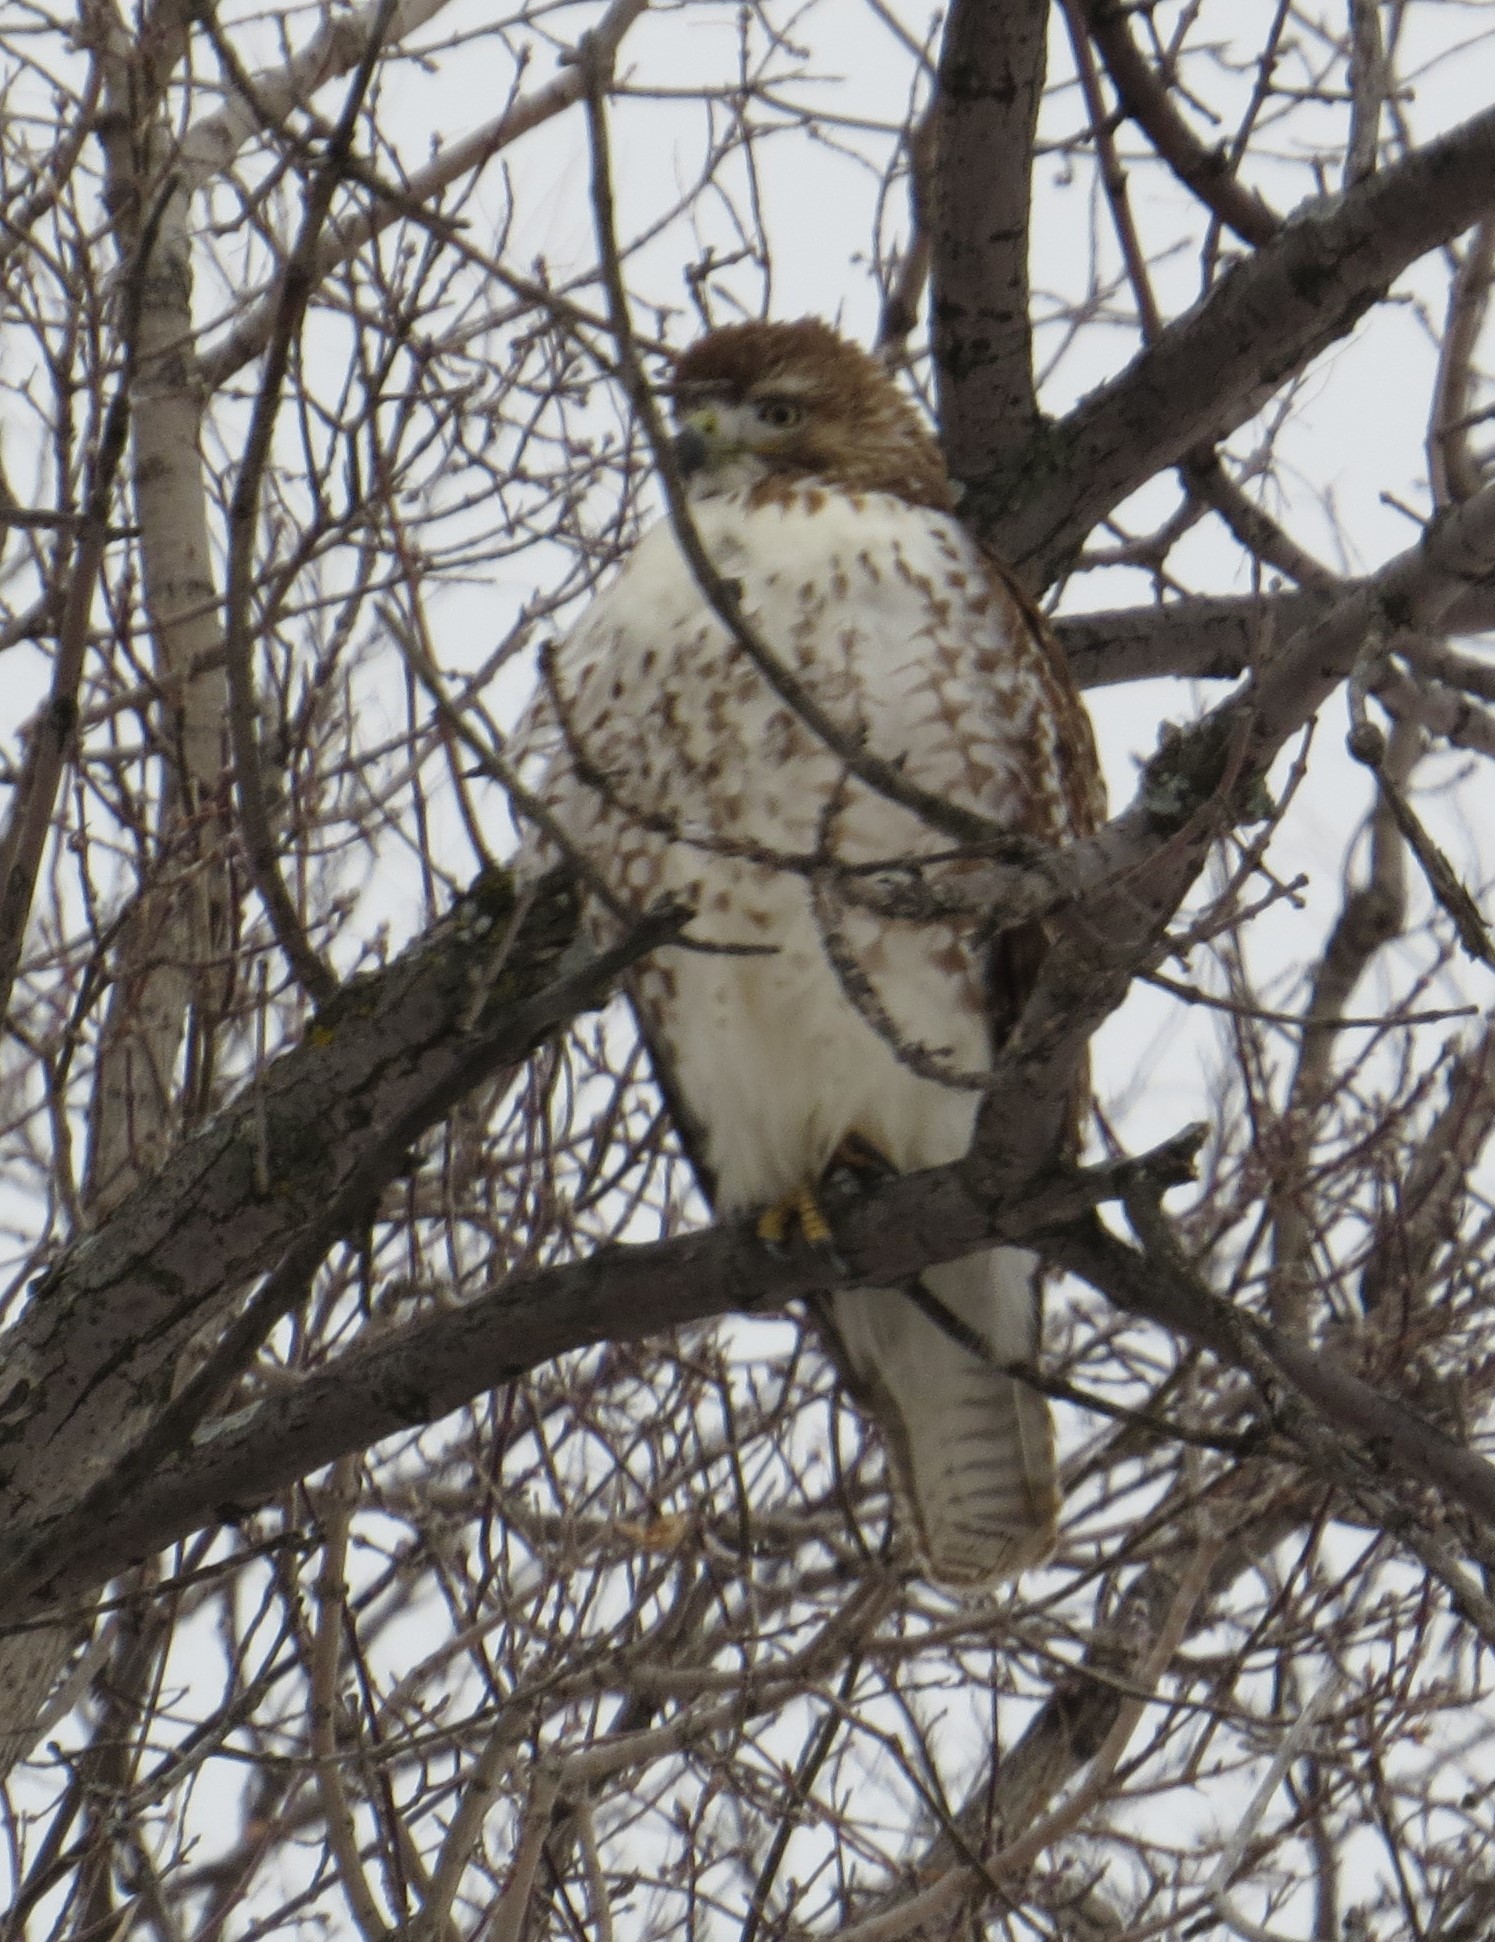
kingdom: Animalia
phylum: Chordata
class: Aves
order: Accipitriformes
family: Accipitridae
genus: Buteo
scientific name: Buteo jamaicensis
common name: Red-tailed hawk
